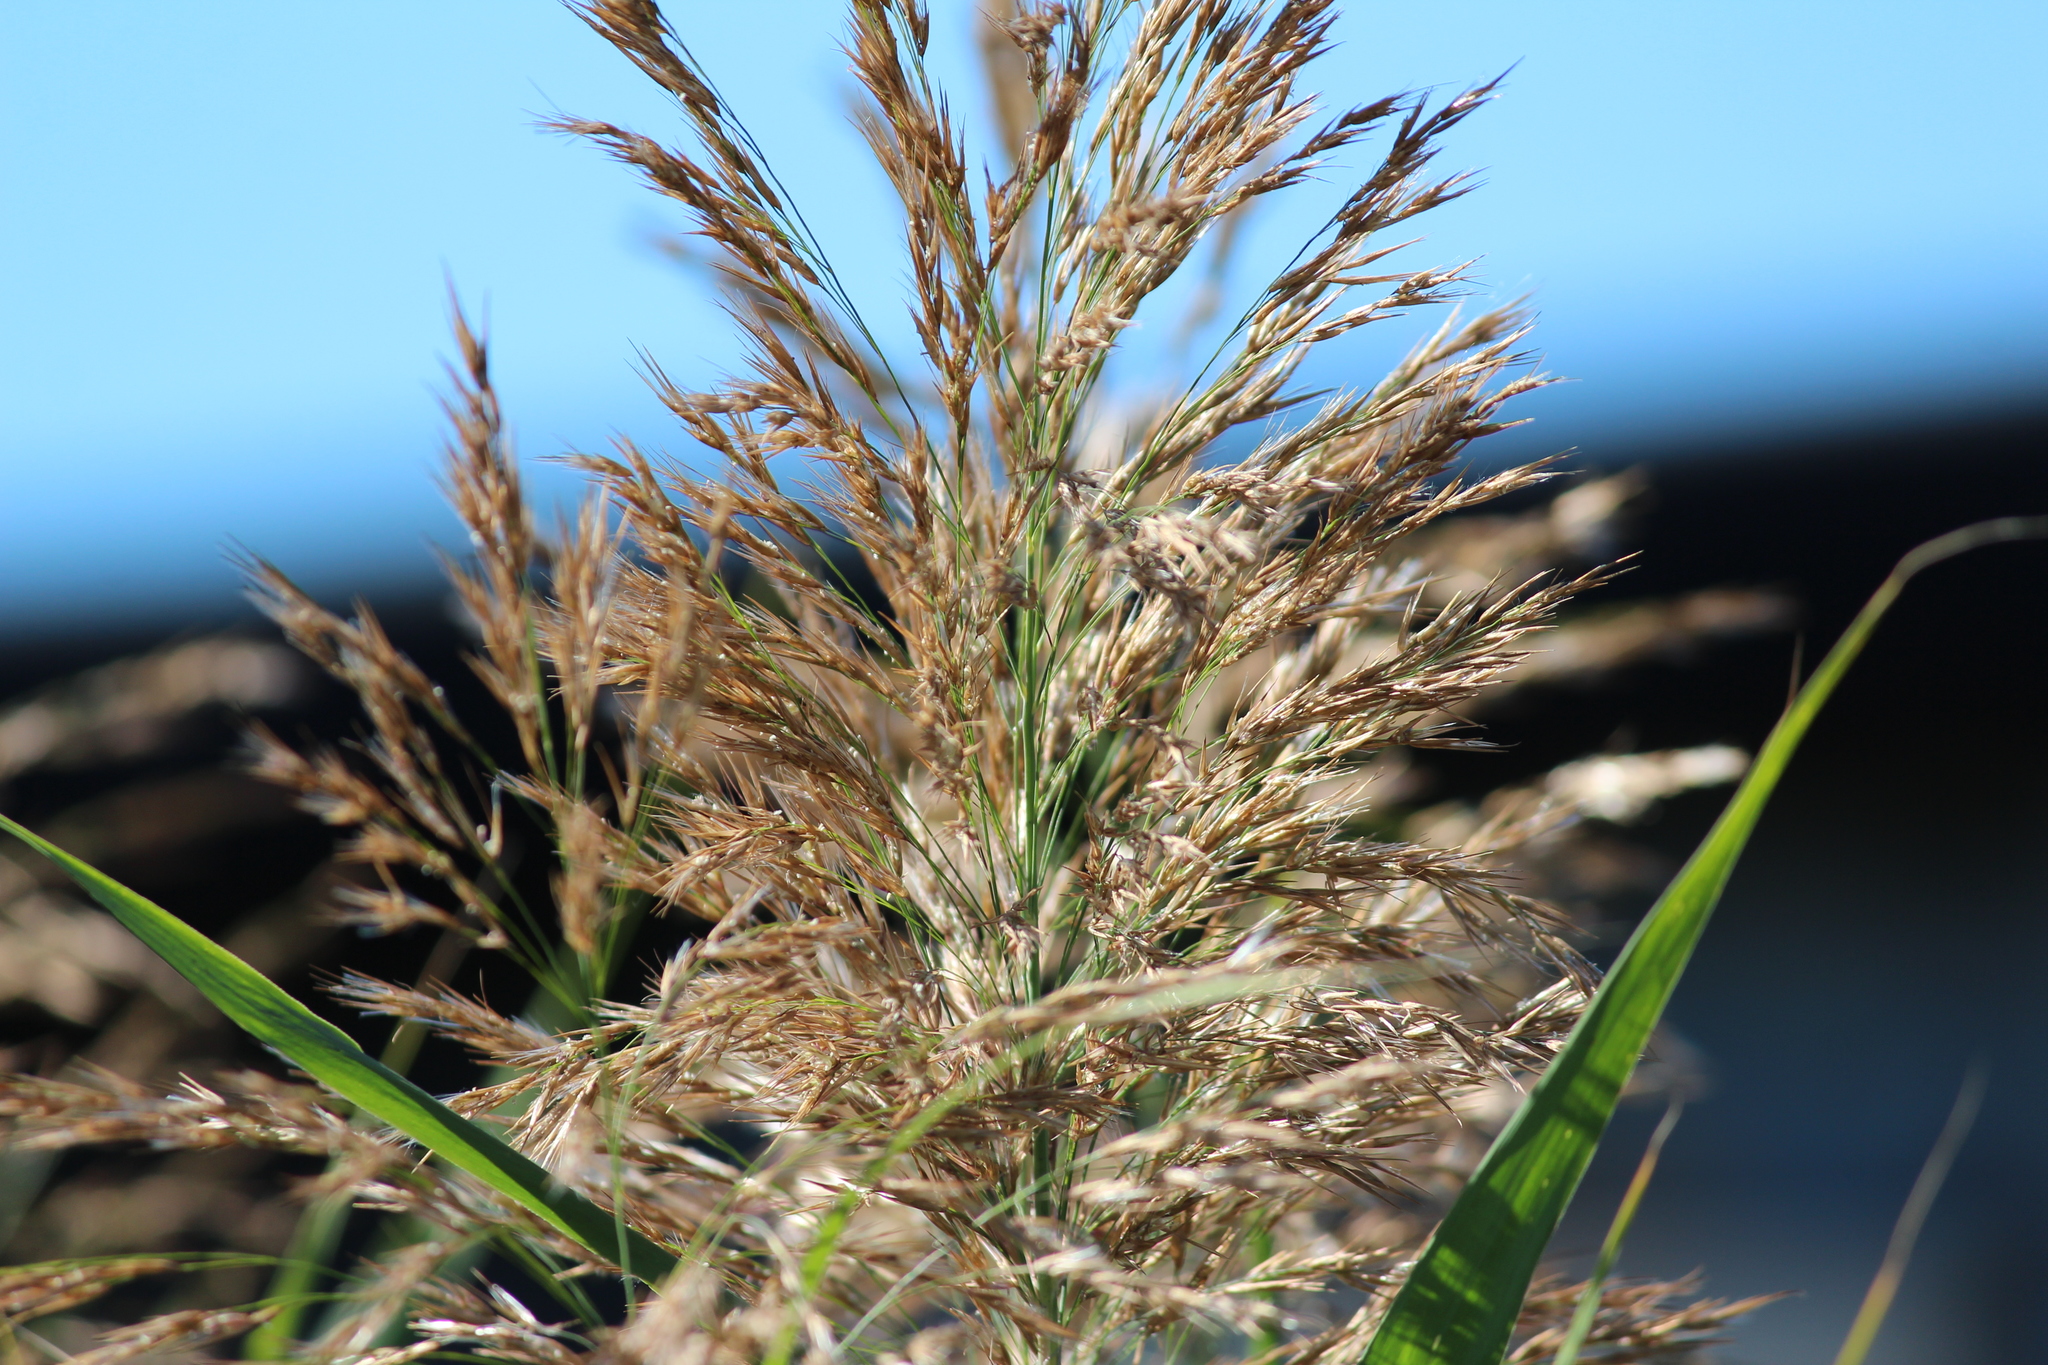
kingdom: Plantae
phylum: Tracheophyta
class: Liliopsida
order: Poales
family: Poaceae
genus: Phragmites
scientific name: Phragmites australis
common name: Common reed
